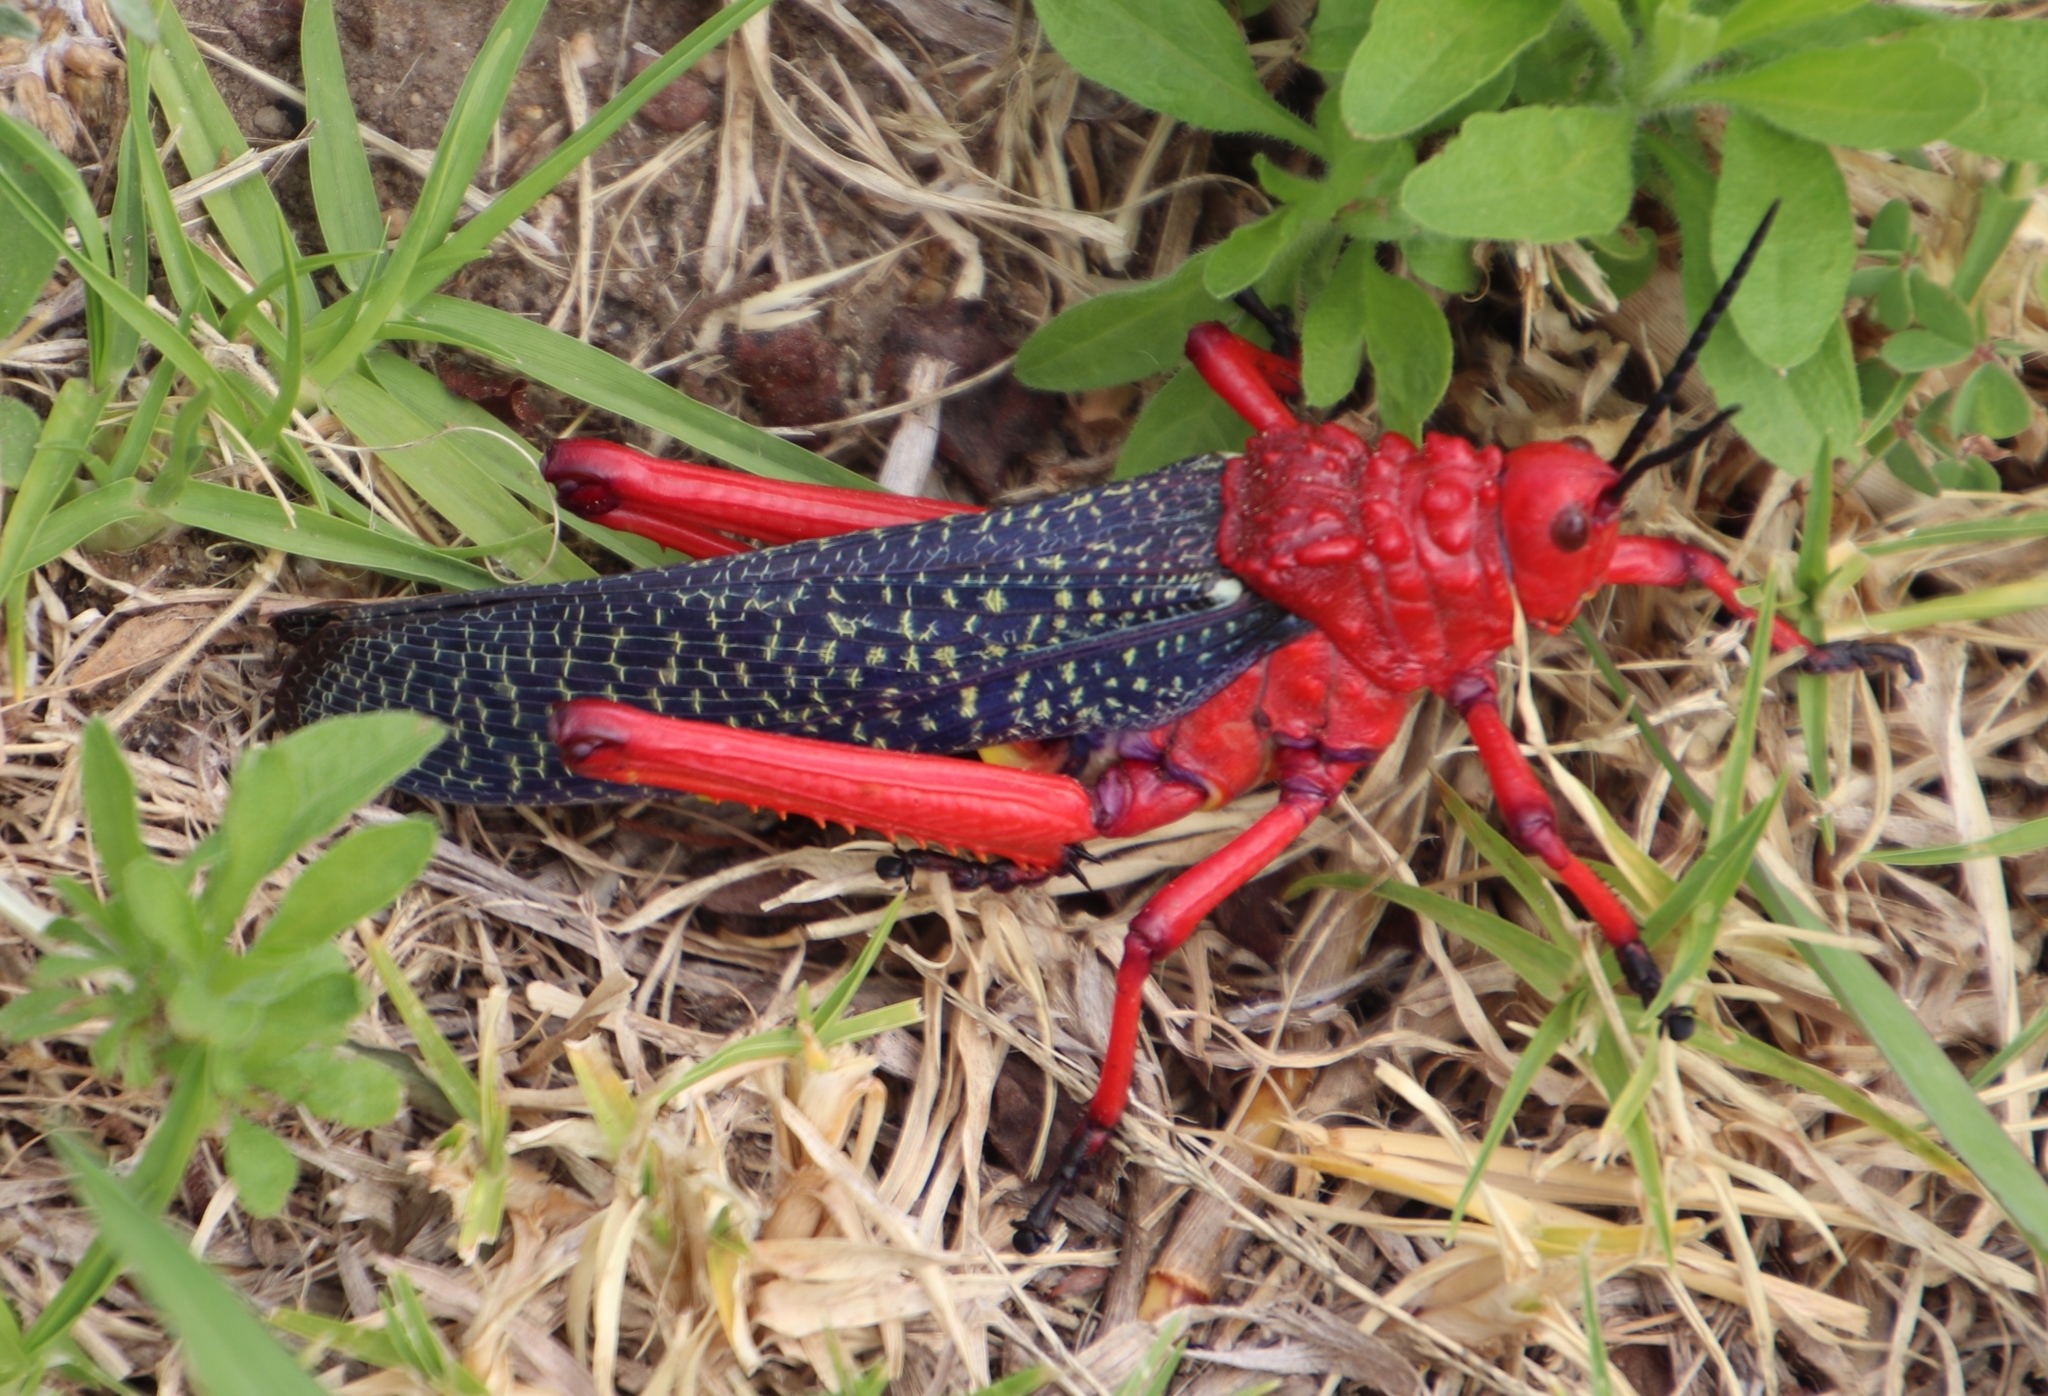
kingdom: Animalia
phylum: Arthropoda
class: Insecta
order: Orthoptera
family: Pyrgomorphidae
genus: Phymateus
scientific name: Phymateus morbillosus
